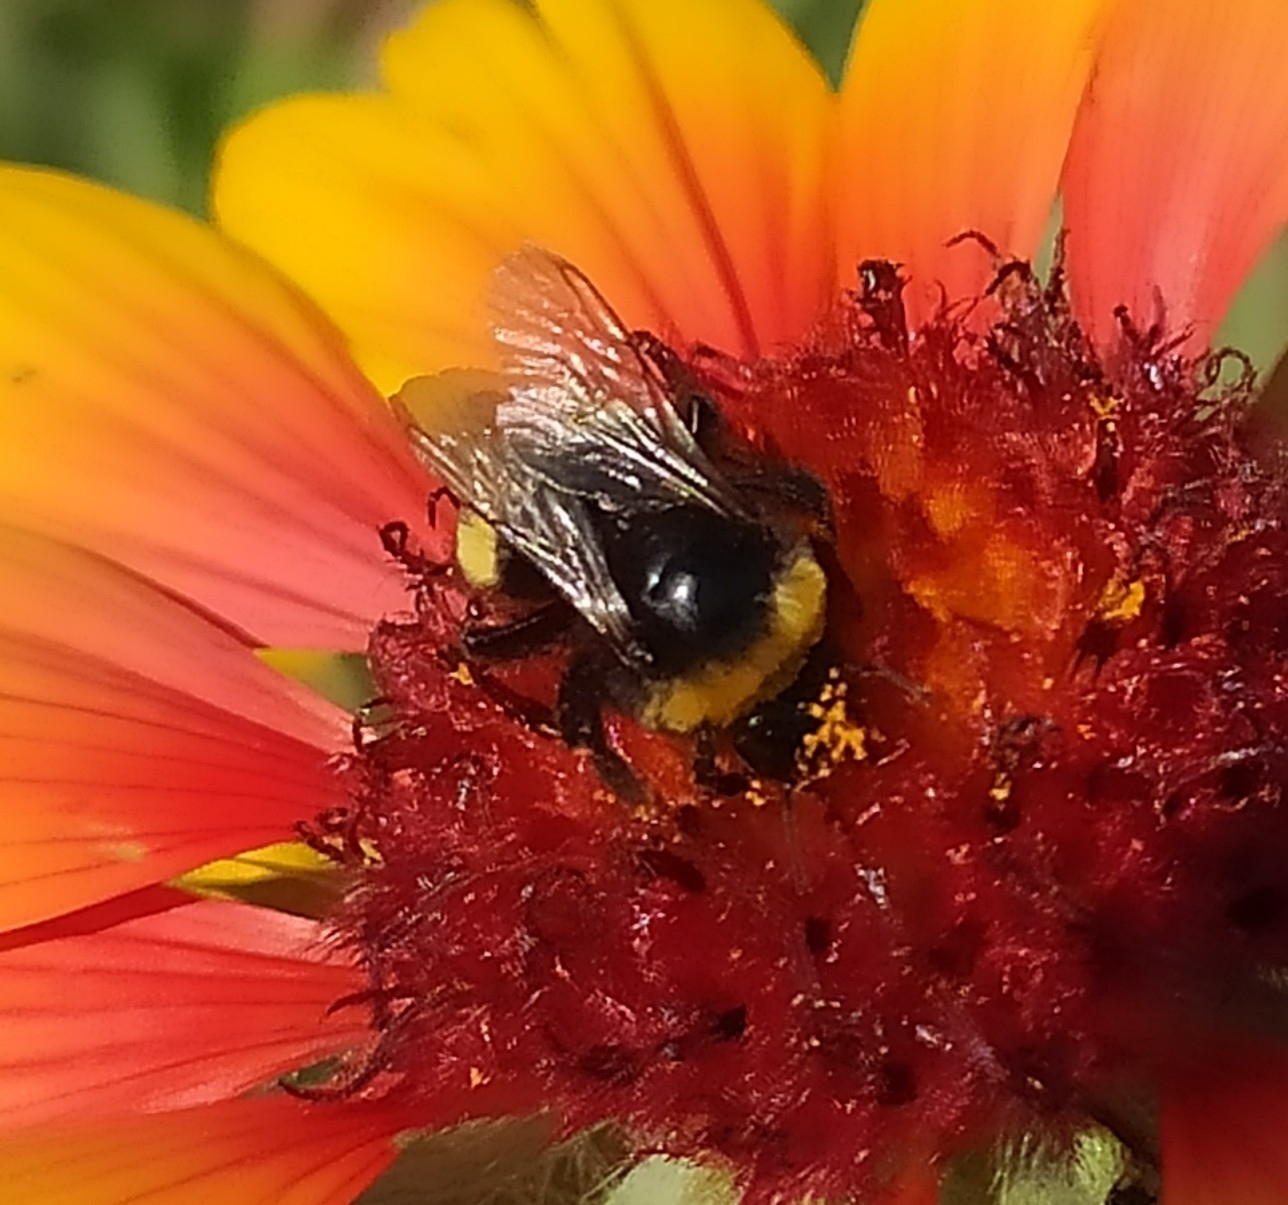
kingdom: Animalia
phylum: Arthropoda
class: Insecta
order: Hymenoptera
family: Apidae
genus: Bombus
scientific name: Bombus
